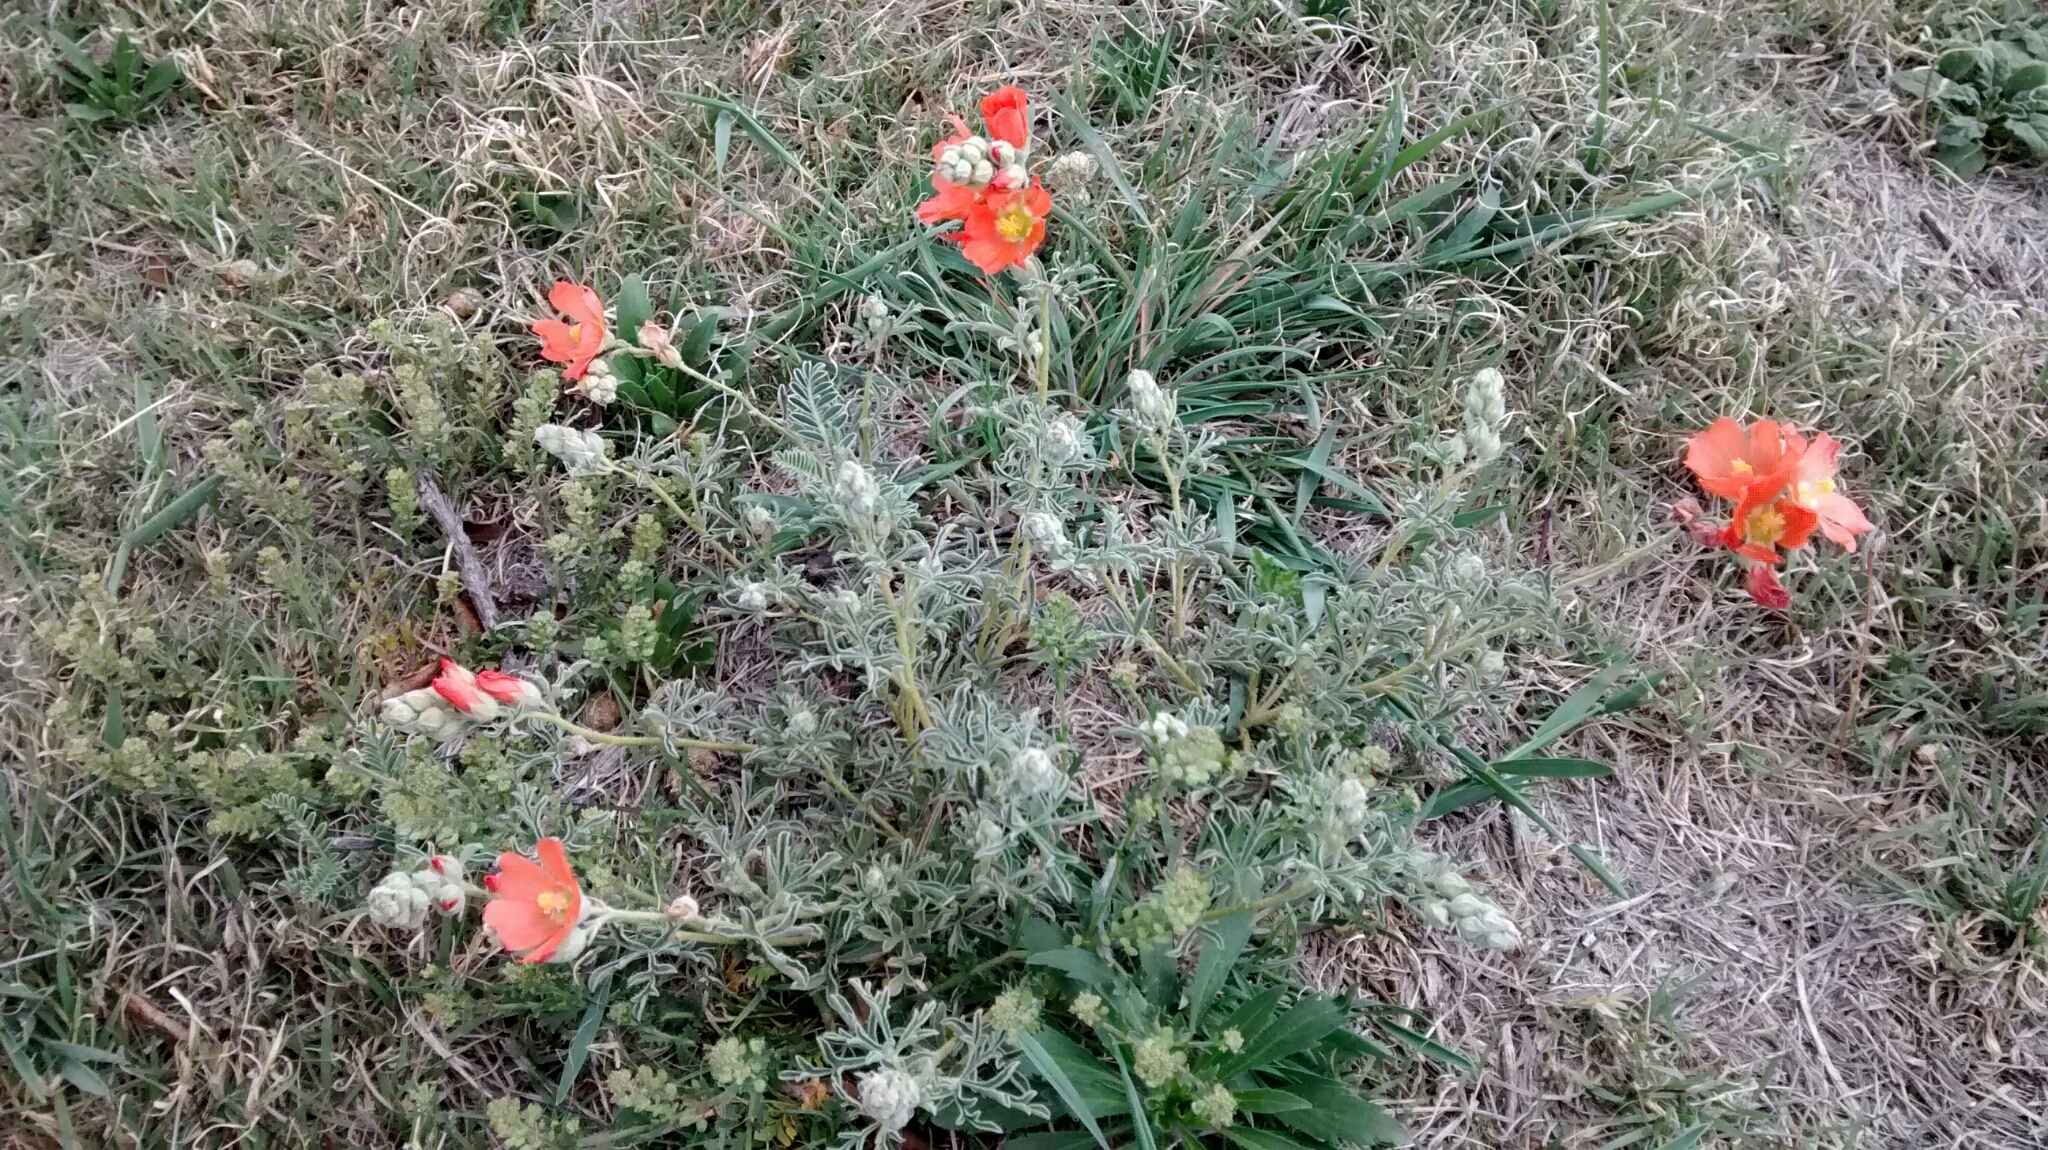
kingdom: Plantae
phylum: Tracheophyta
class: Magnoliopsida
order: Malvales
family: Malvaceae
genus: Sphaeralcea
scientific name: Sphaeralcea coccinea
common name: Moss-rose
